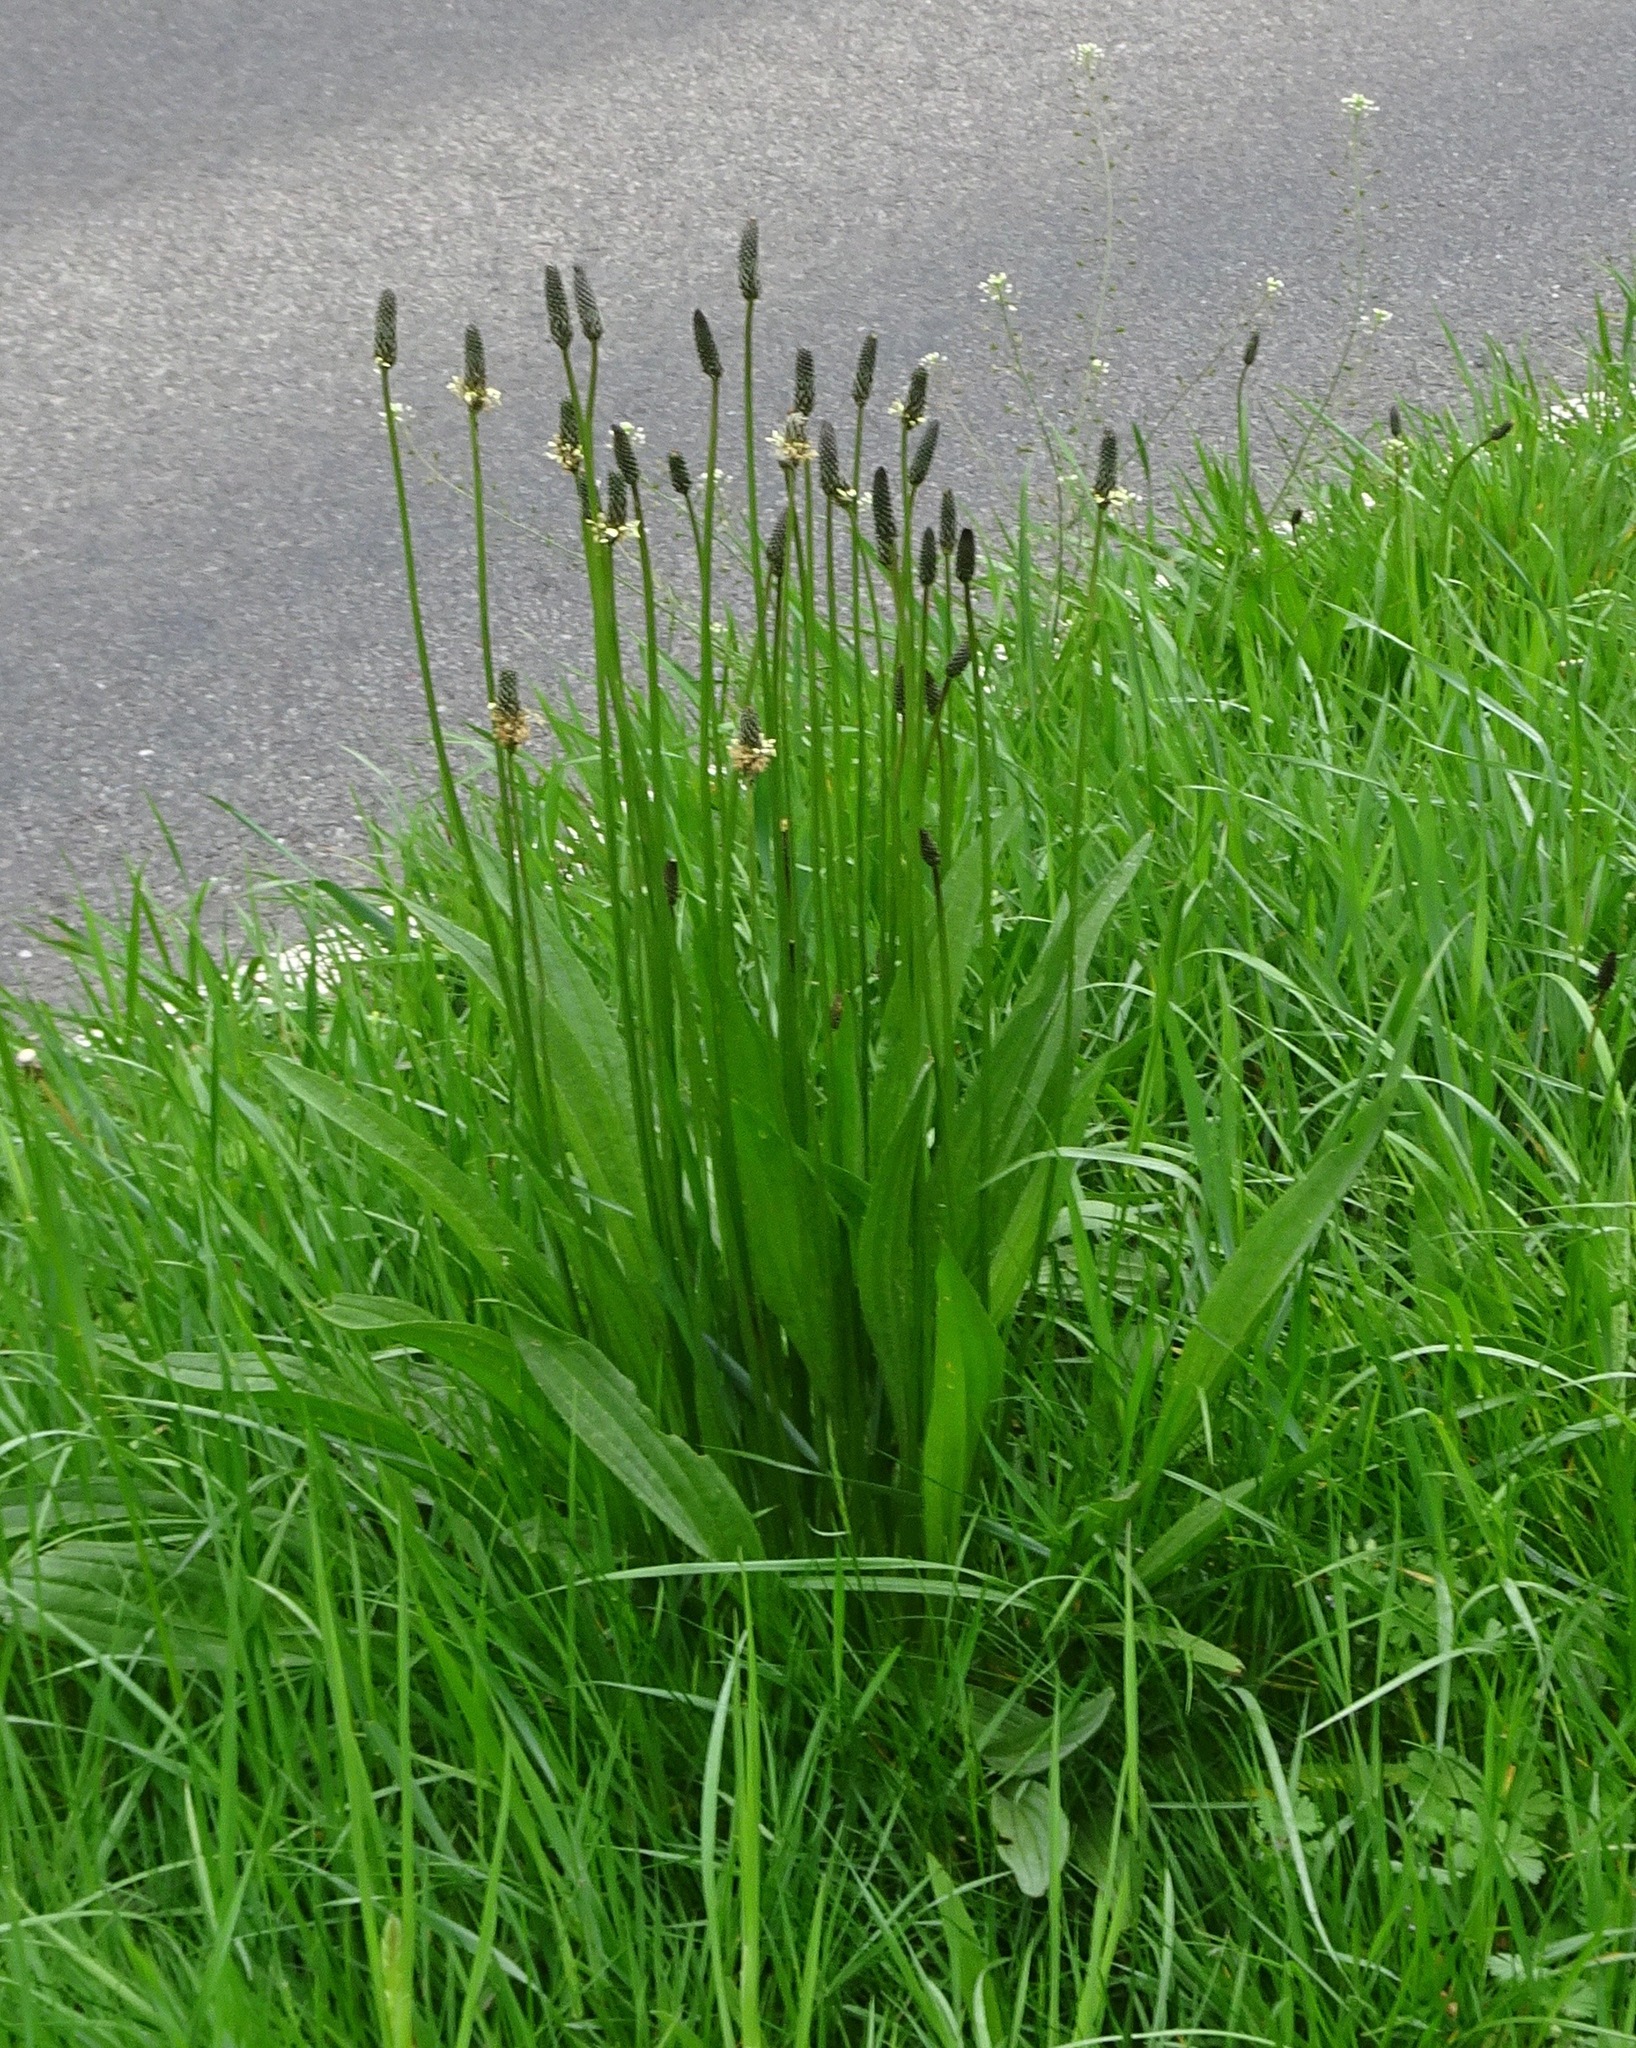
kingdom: Plantae
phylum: Tracheophyta
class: Magnoliopsida
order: Lamiales
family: Plantaginaceae
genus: Plantago
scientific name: Plantago lanceolata
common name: Ribwort plantain
